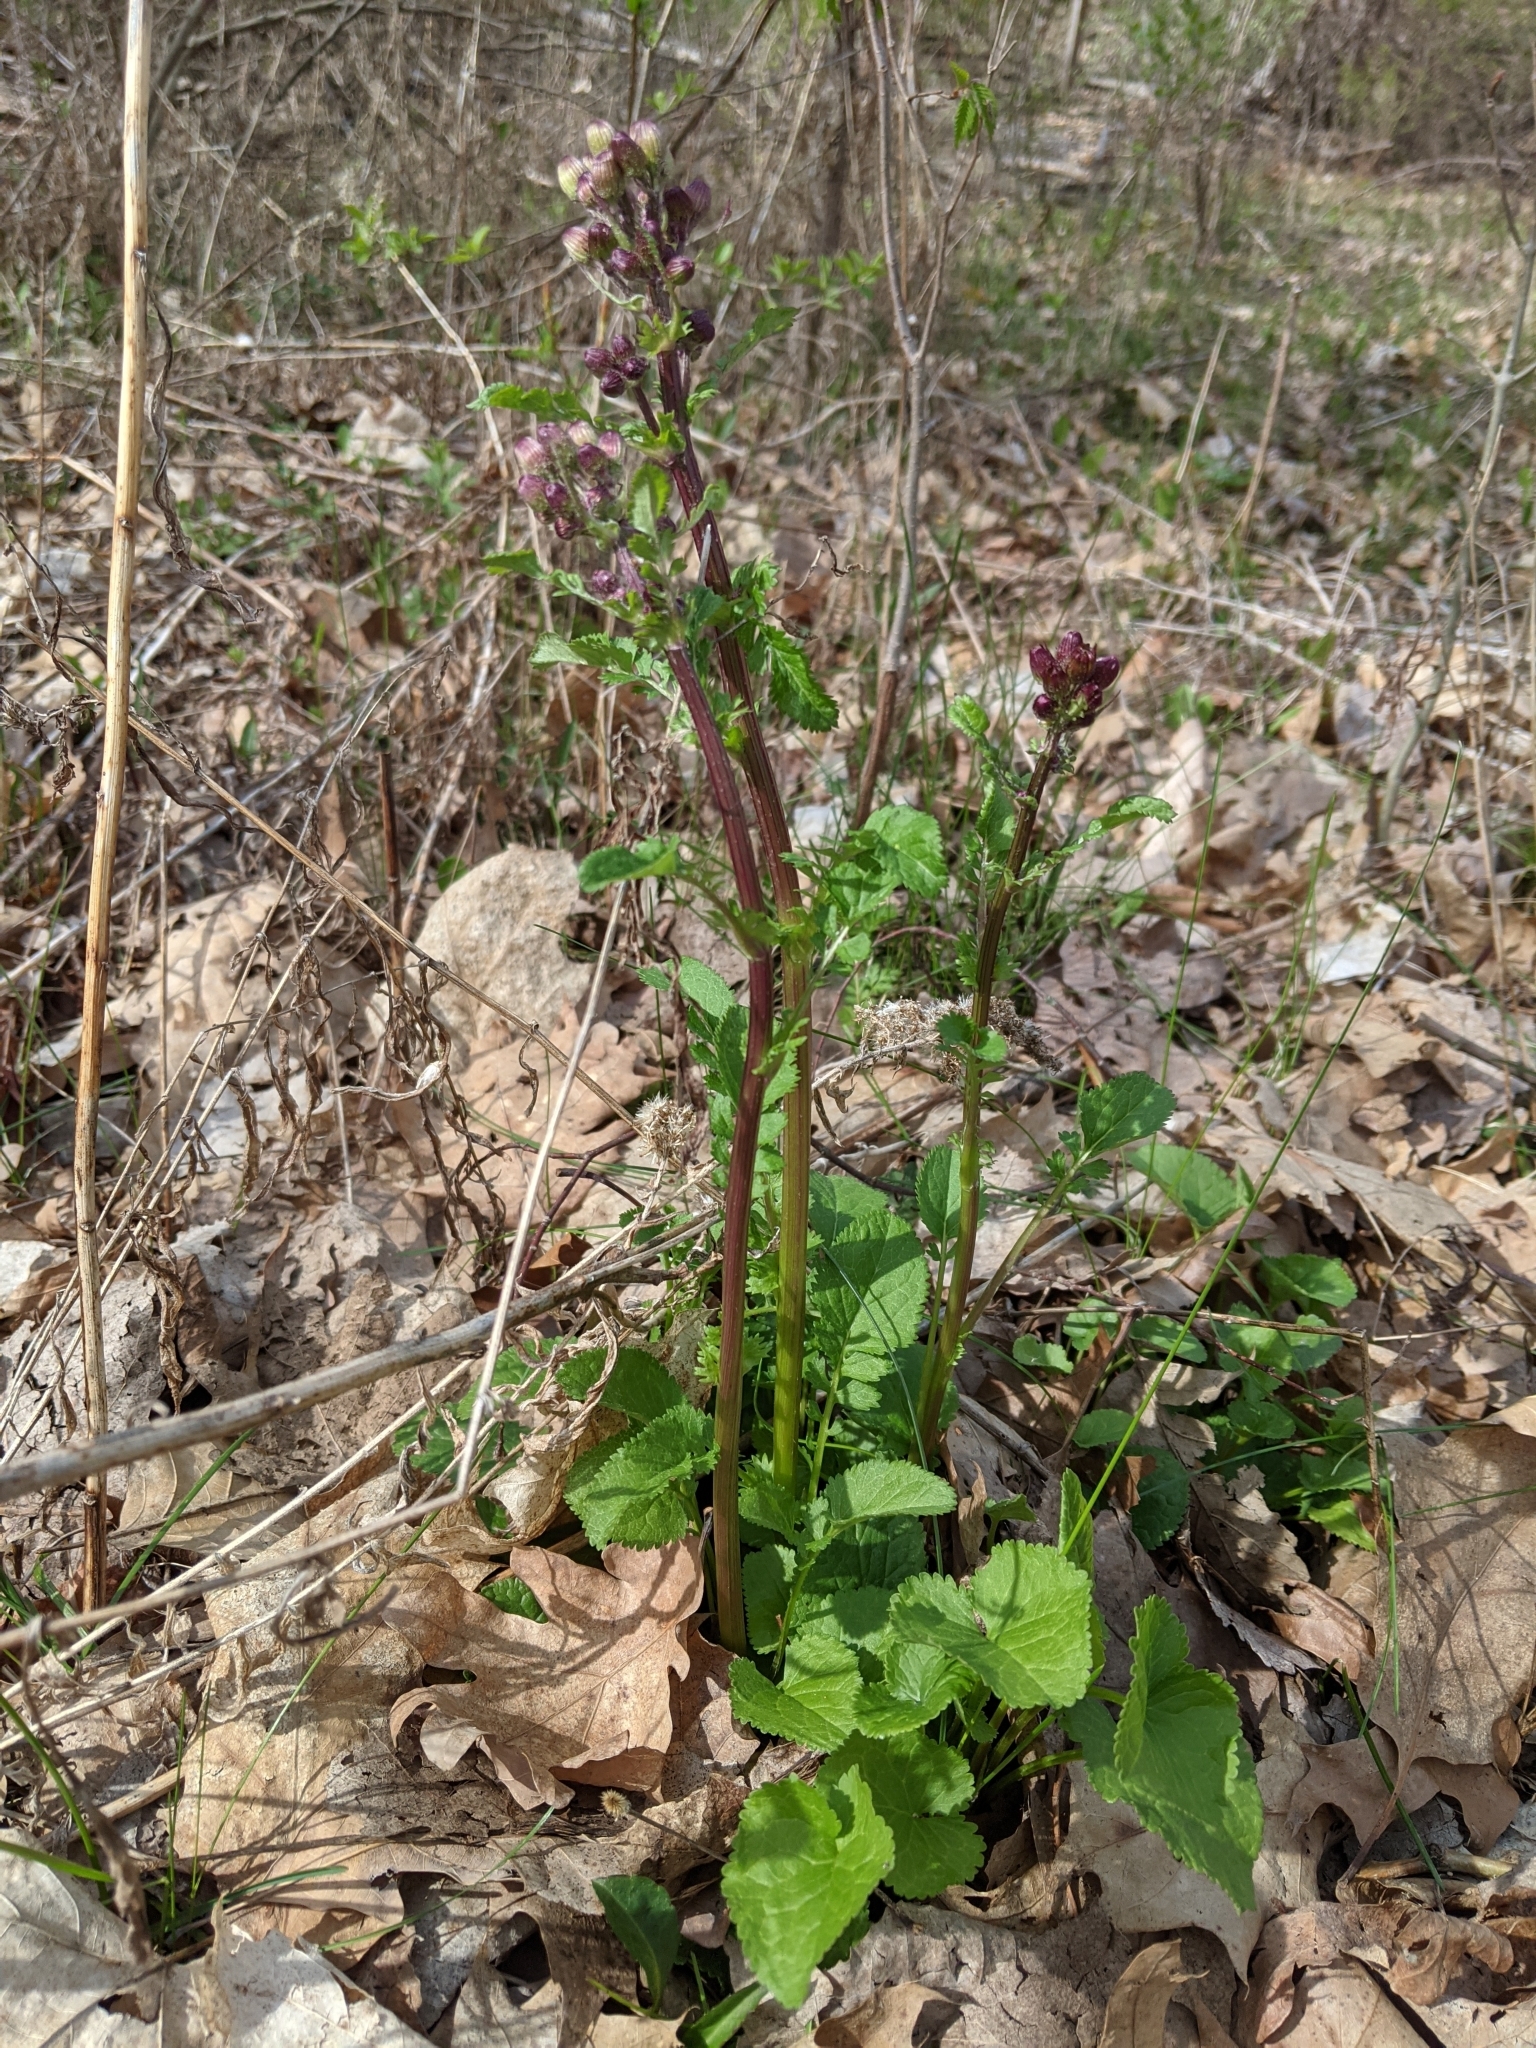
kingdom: Plantae
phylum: Tracheophyta
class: Magnoliopsida
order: Asterales
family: Asteraceae
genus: Packera
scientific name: Packera aurea
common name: Golden groundsel
